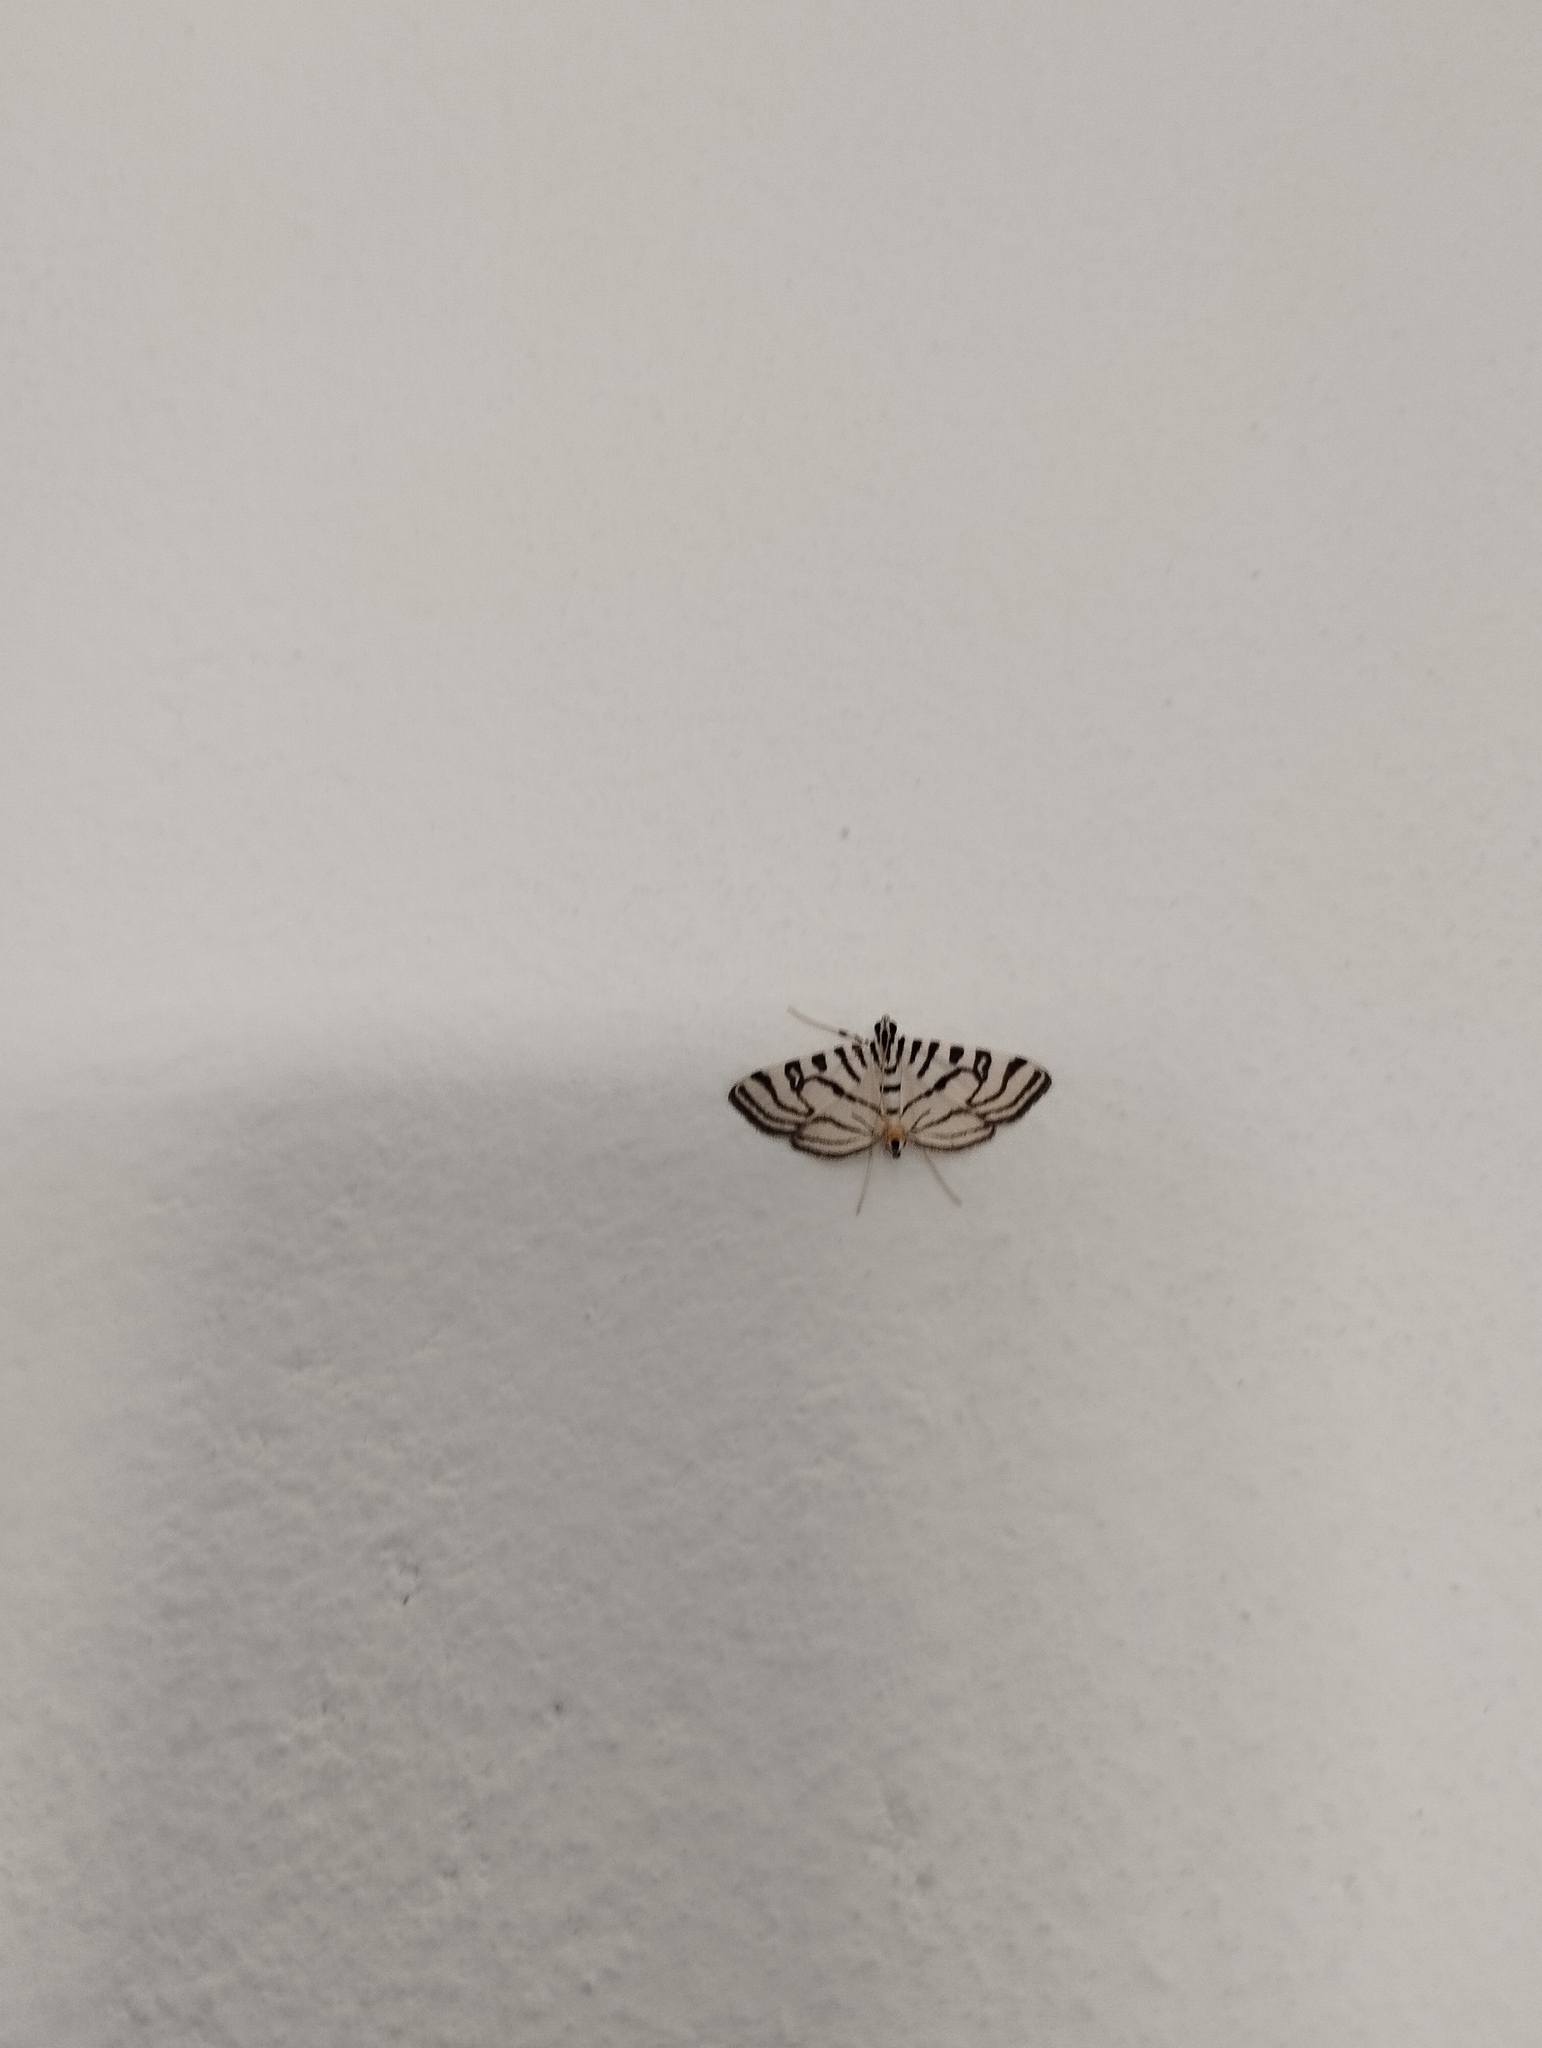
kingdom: Animalia
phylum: Arthropoda
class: Insecta
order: Lepidoptera
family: Crambidae
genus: Conchylodes
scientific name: Conchylodes ovulalis
